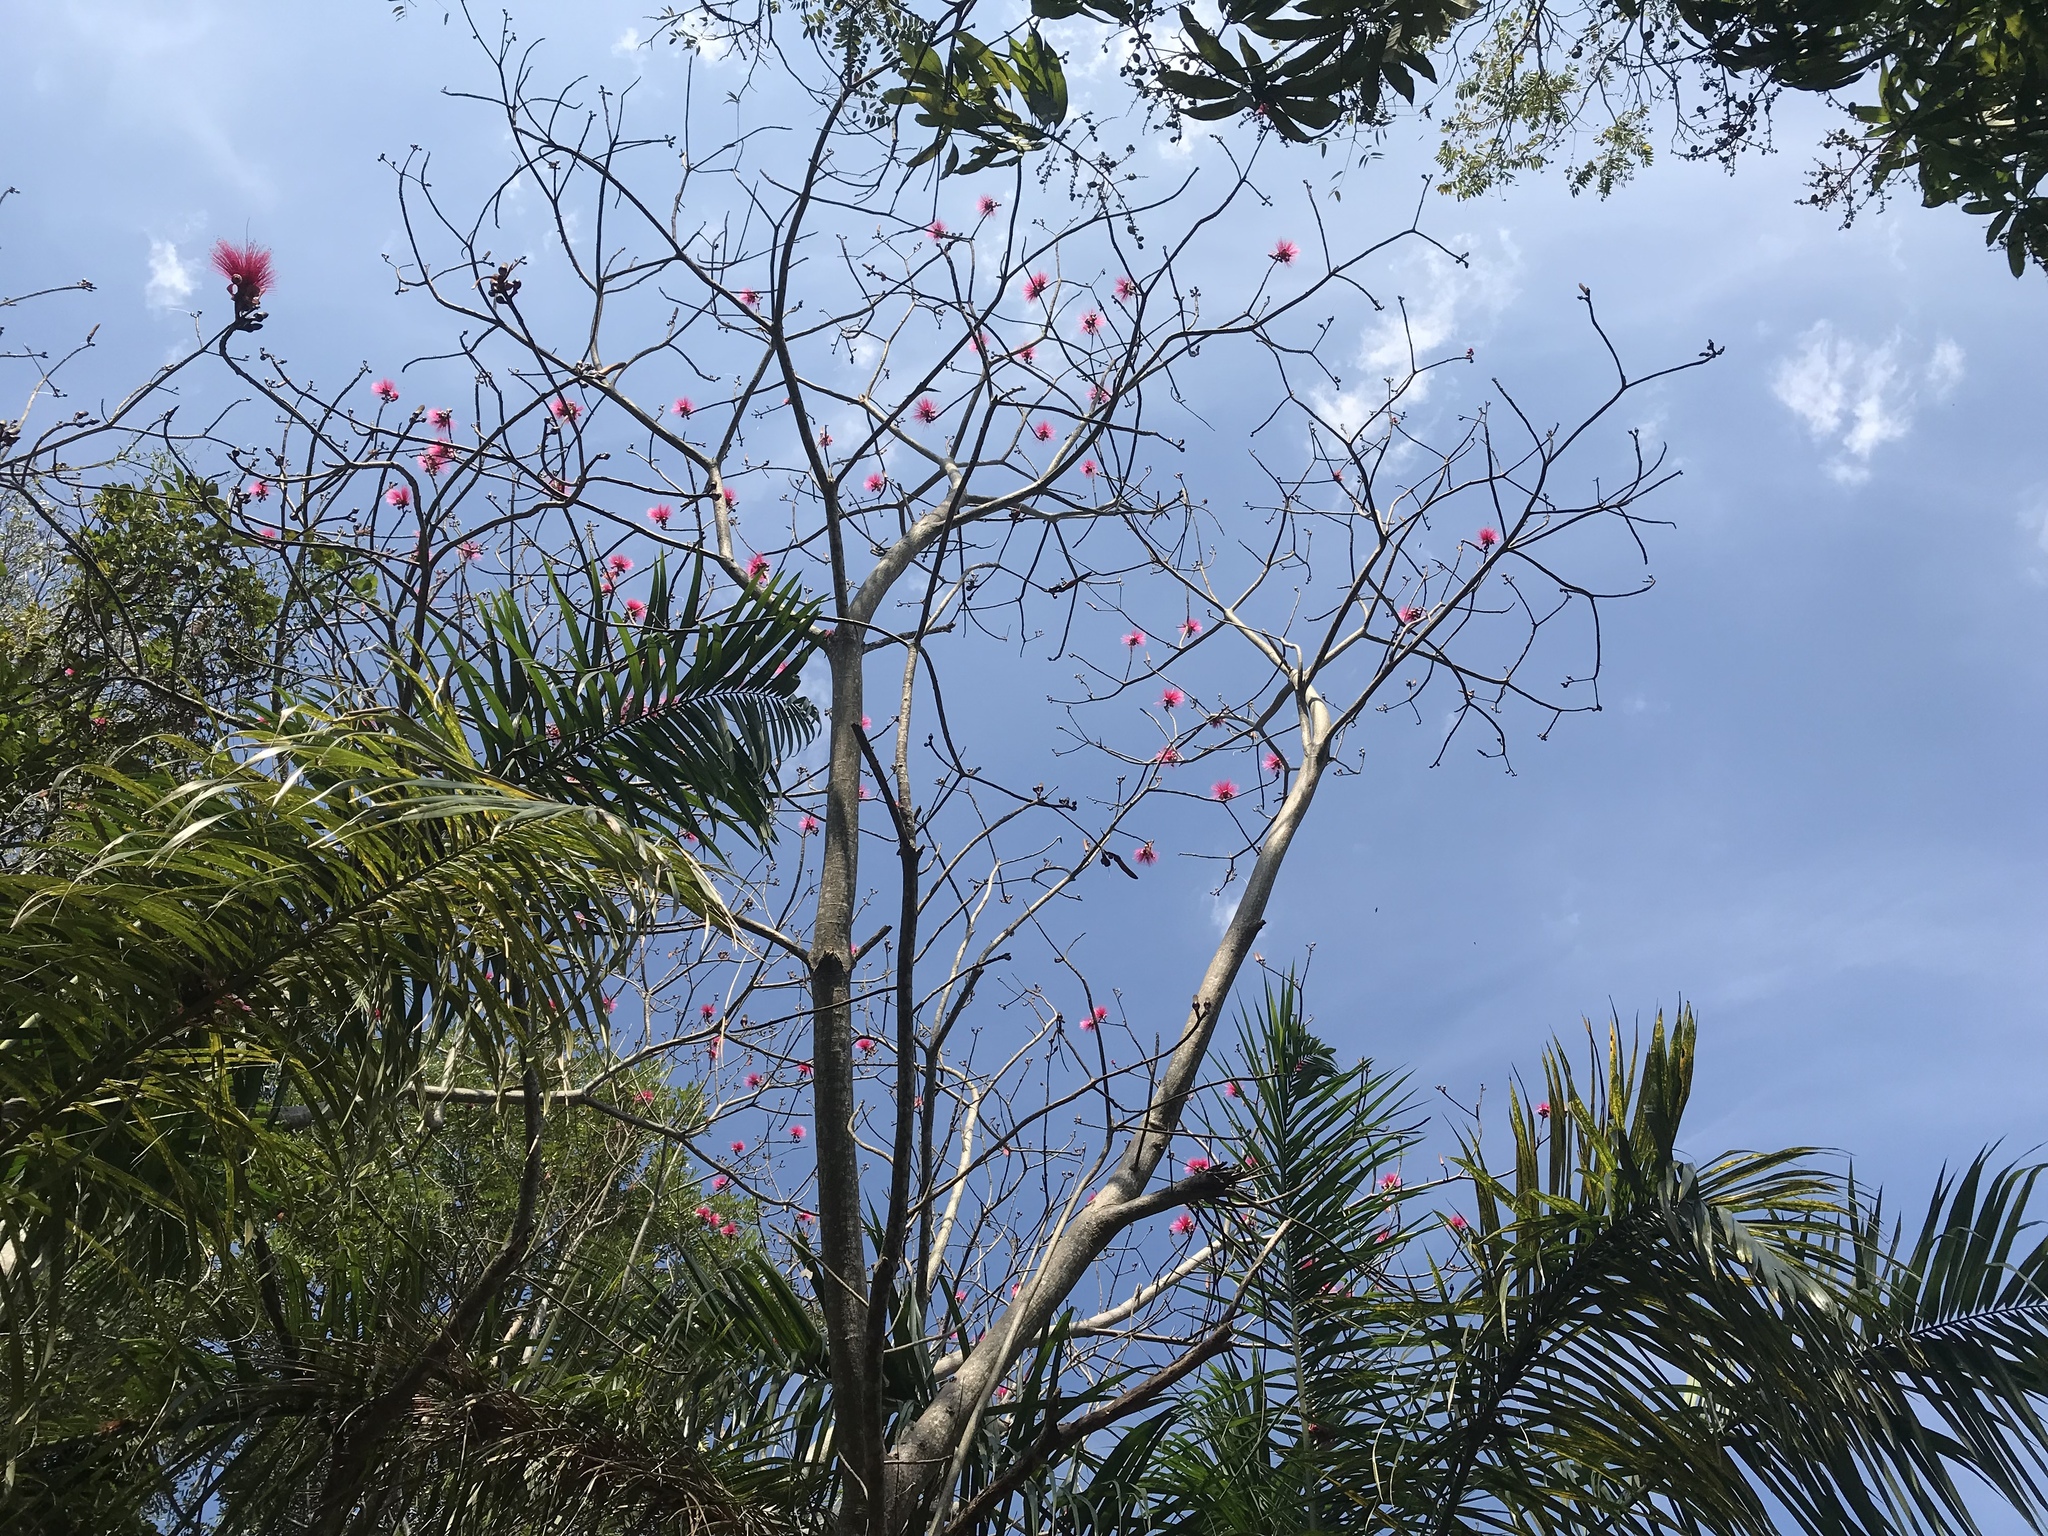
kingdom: Plantae
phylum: Tracheophyta
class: Magnoliopsida
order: Malvales
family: Malvaceae
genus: Pseudobombax
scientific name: Pseudobombax ellipticum
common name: Shaving-brush-tree
